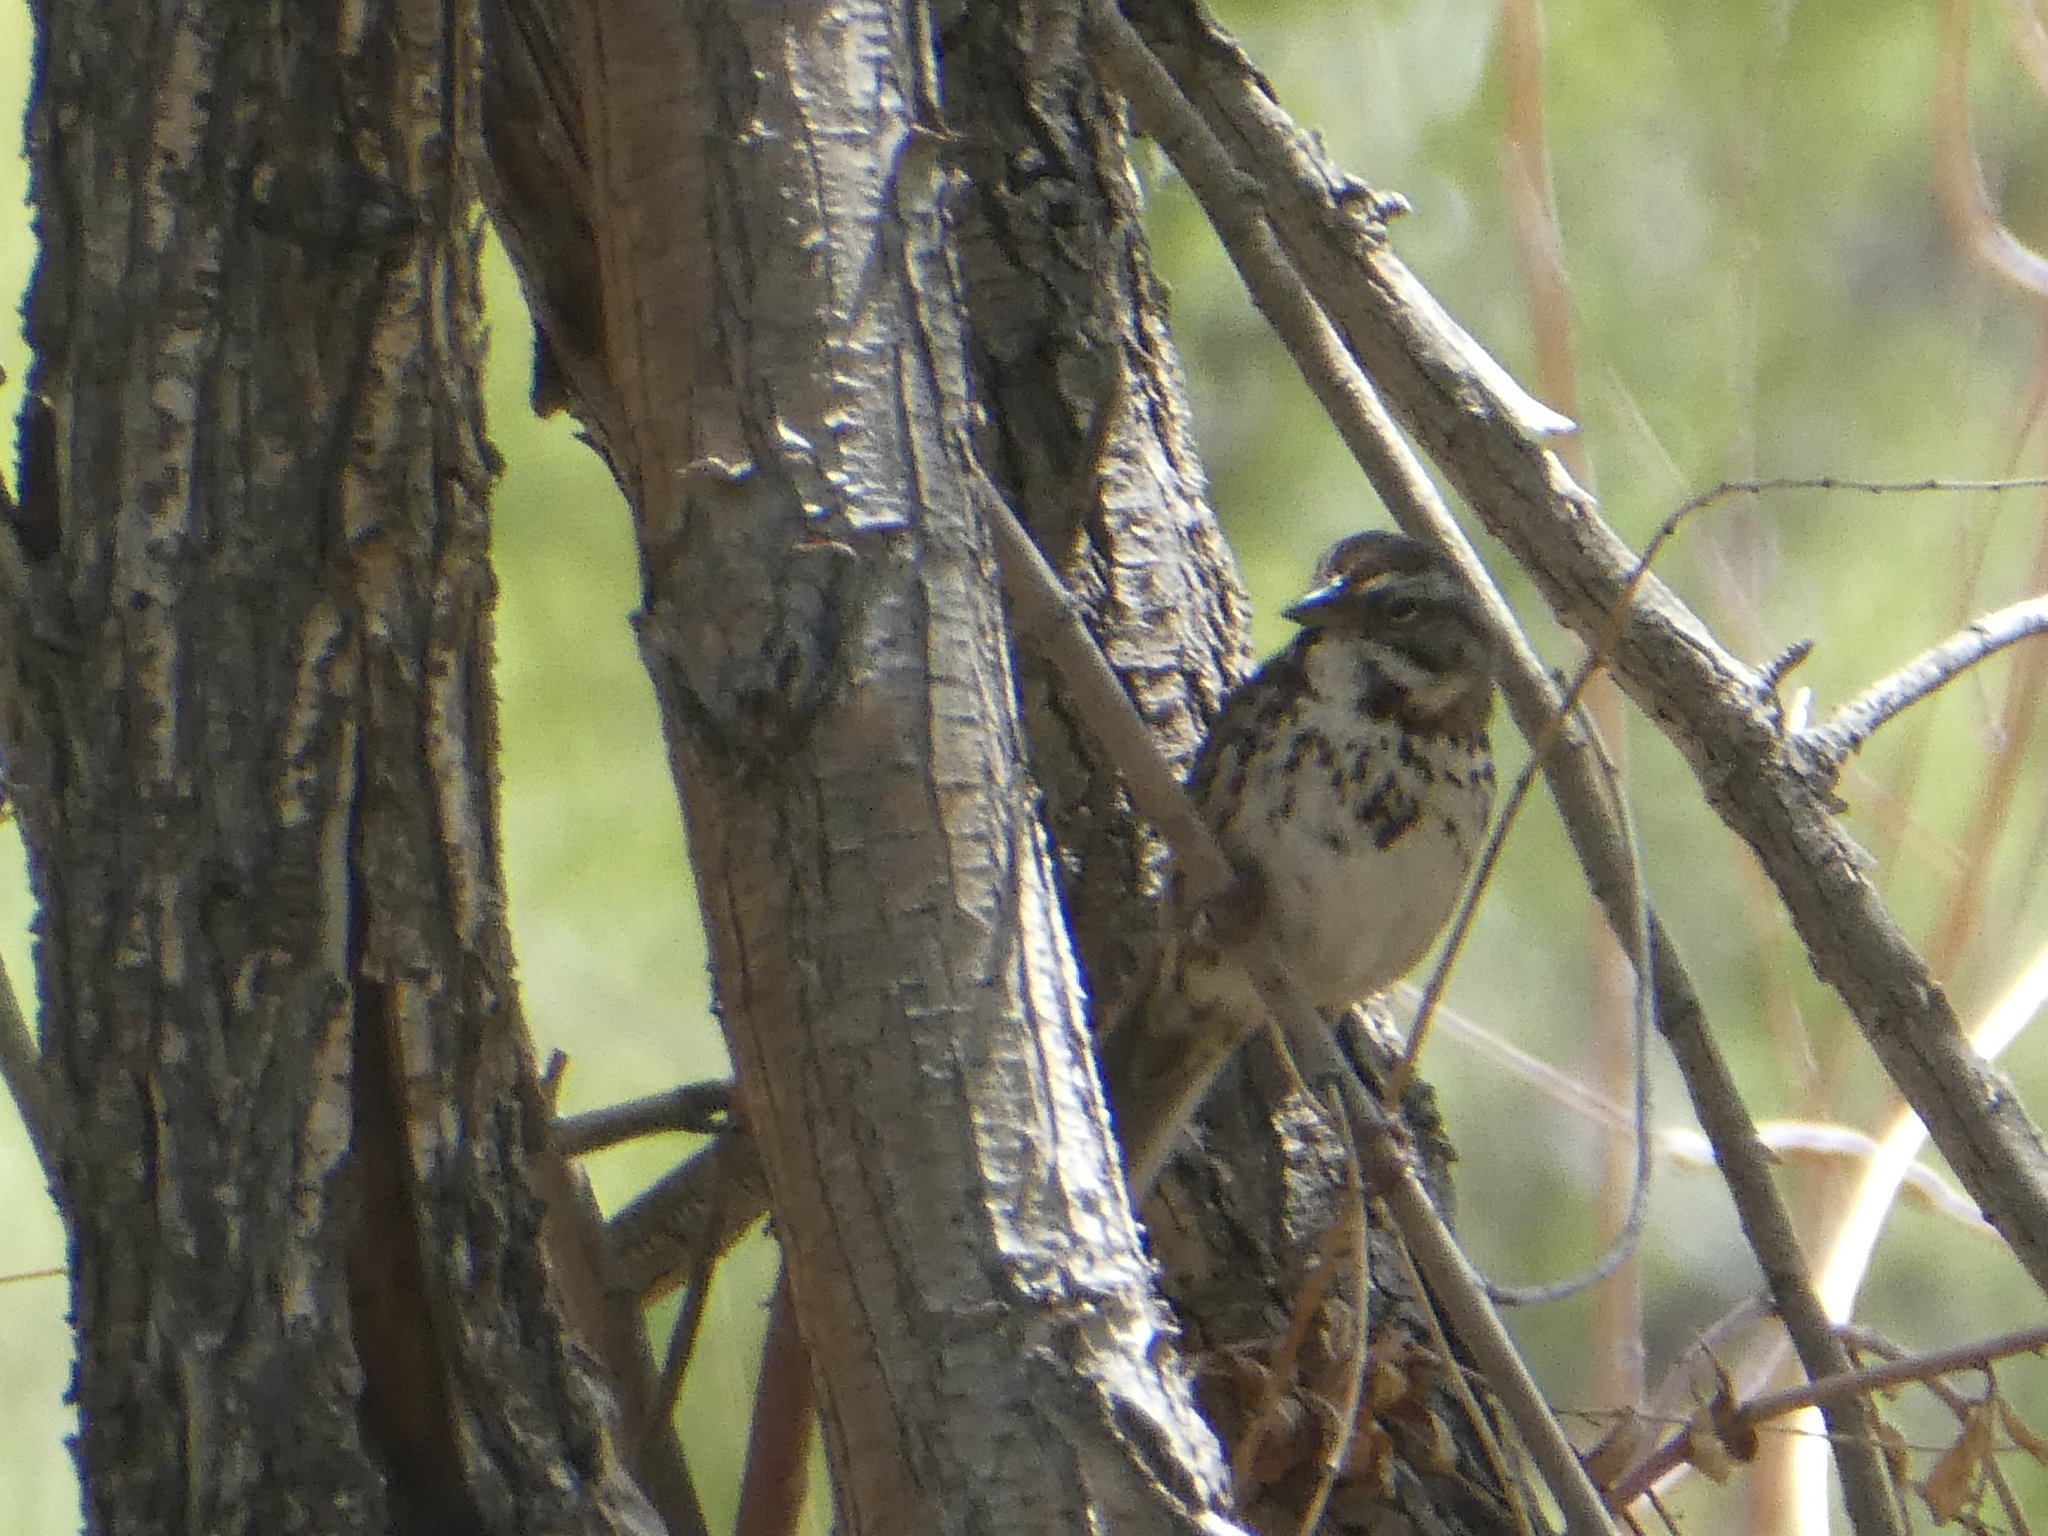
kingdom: Animalia
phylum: Chordata
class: Aves
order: Passeriformes
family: Passerellidae
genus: Melospiza
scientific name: Melospiza melodia
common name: Song sparrow
